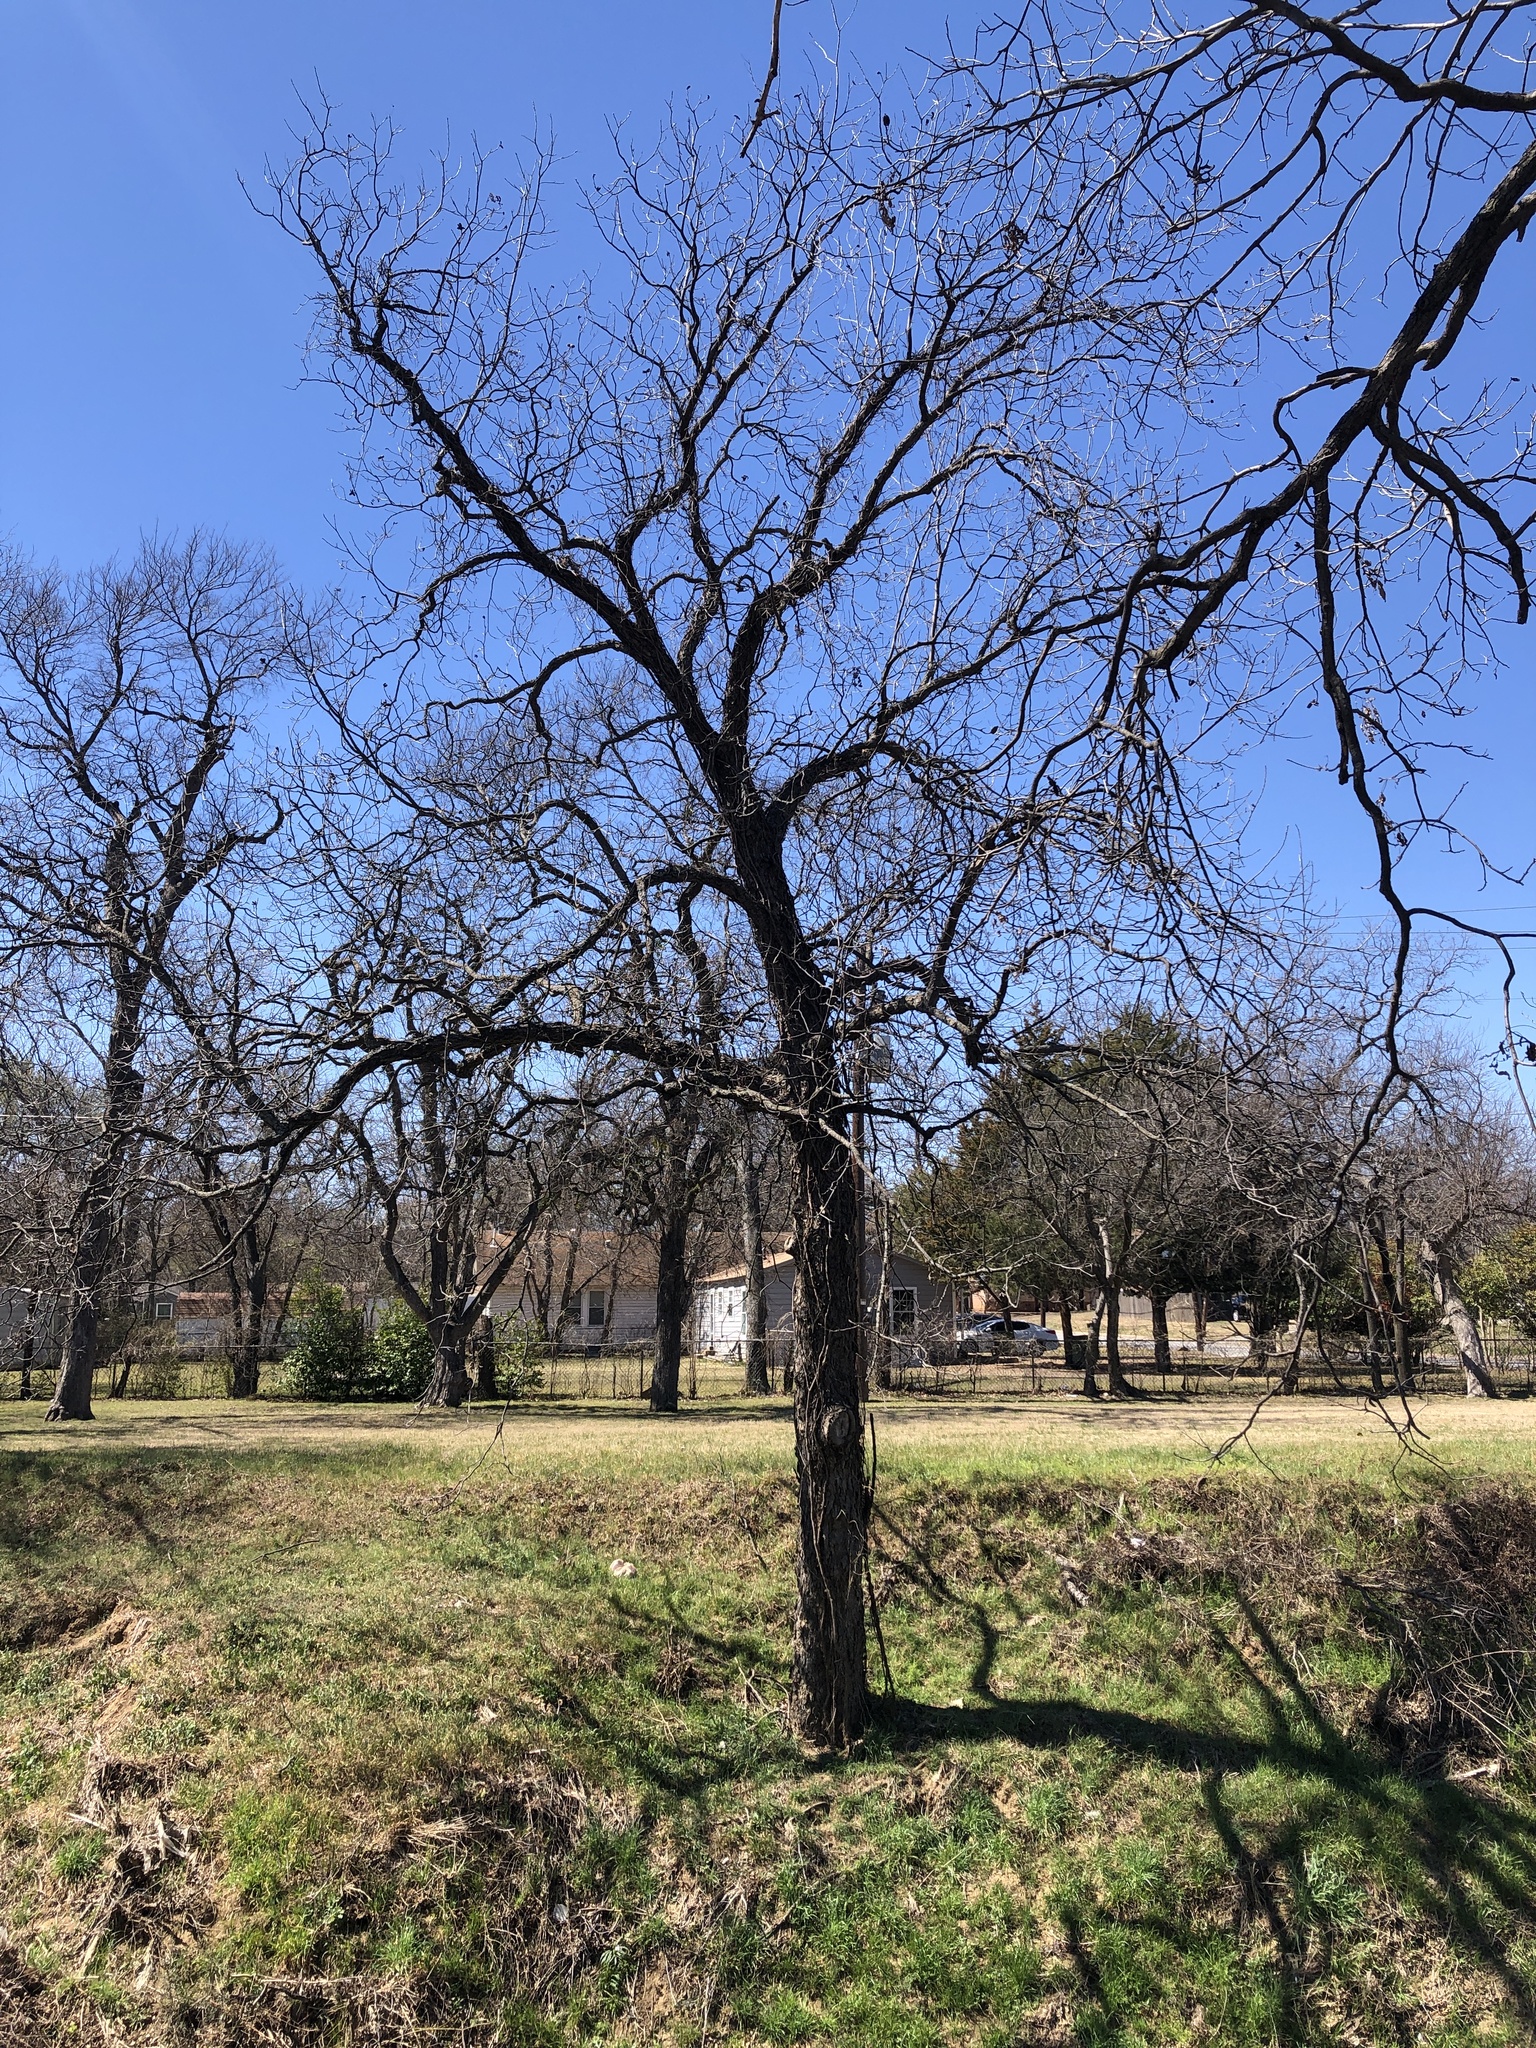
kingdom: Plantae
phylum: Tracheophyta
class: Magnoliopsida
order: Fagales
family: Juglandaceae
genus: Carya
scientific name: Carya illinoinensis
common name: Pecan
